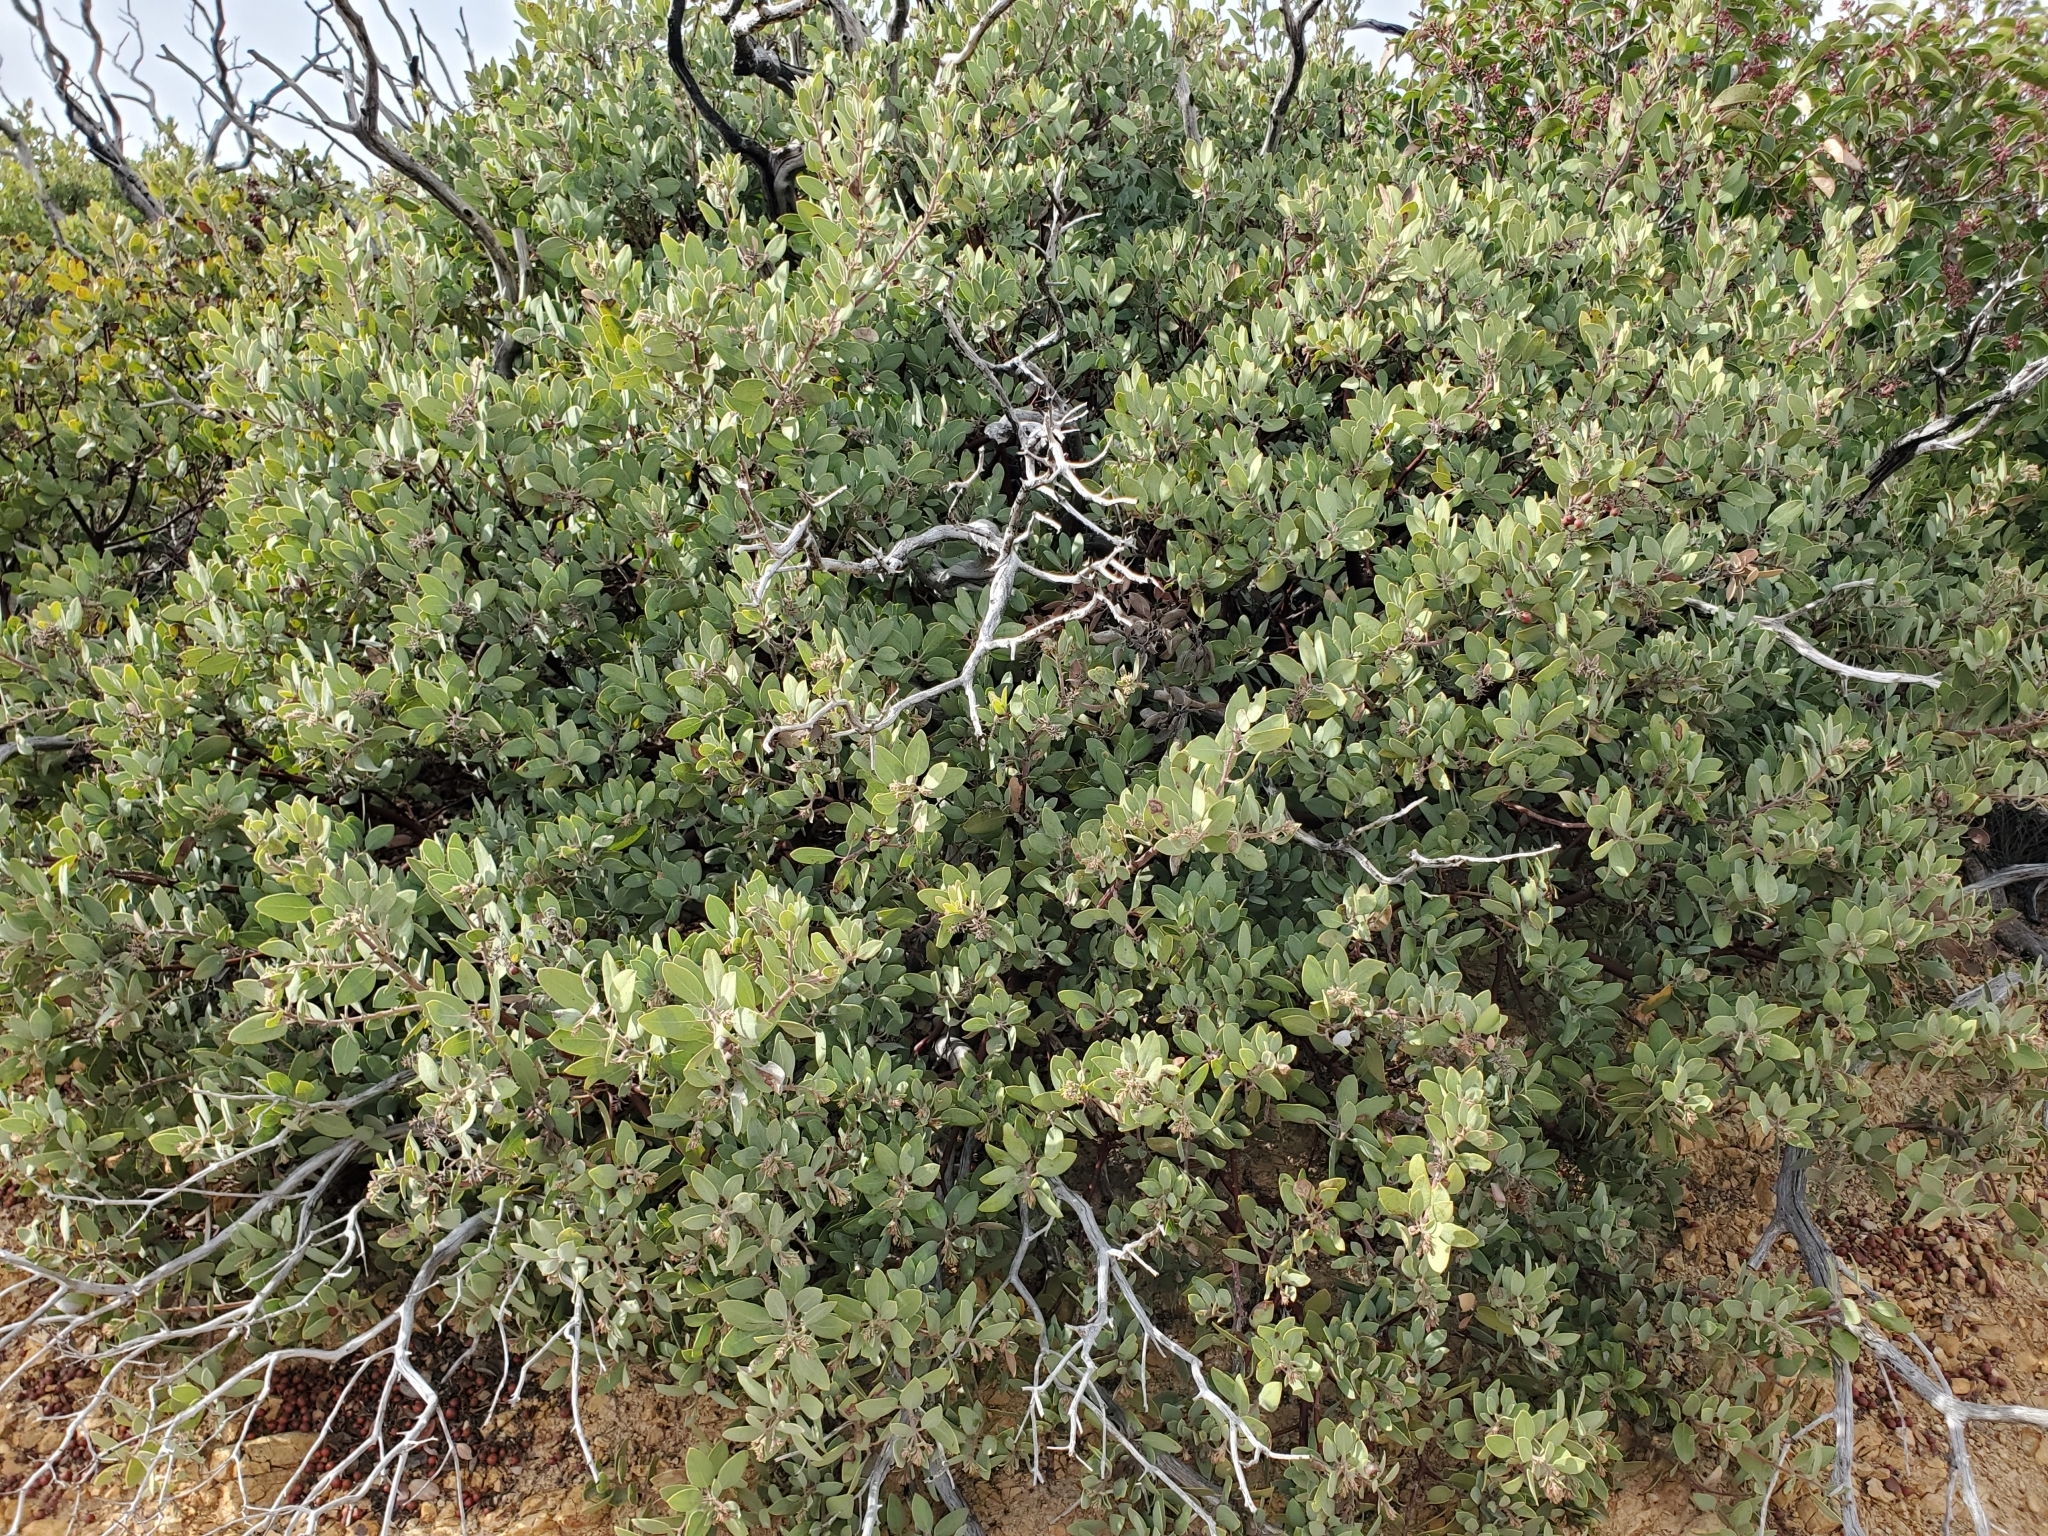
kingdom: Plantae
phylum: Tracheophyta
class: Magnoliopsida
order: Ericales
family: Ericaceae
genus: Arctostaphylos
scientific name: Arctostaphylos glandulosa
